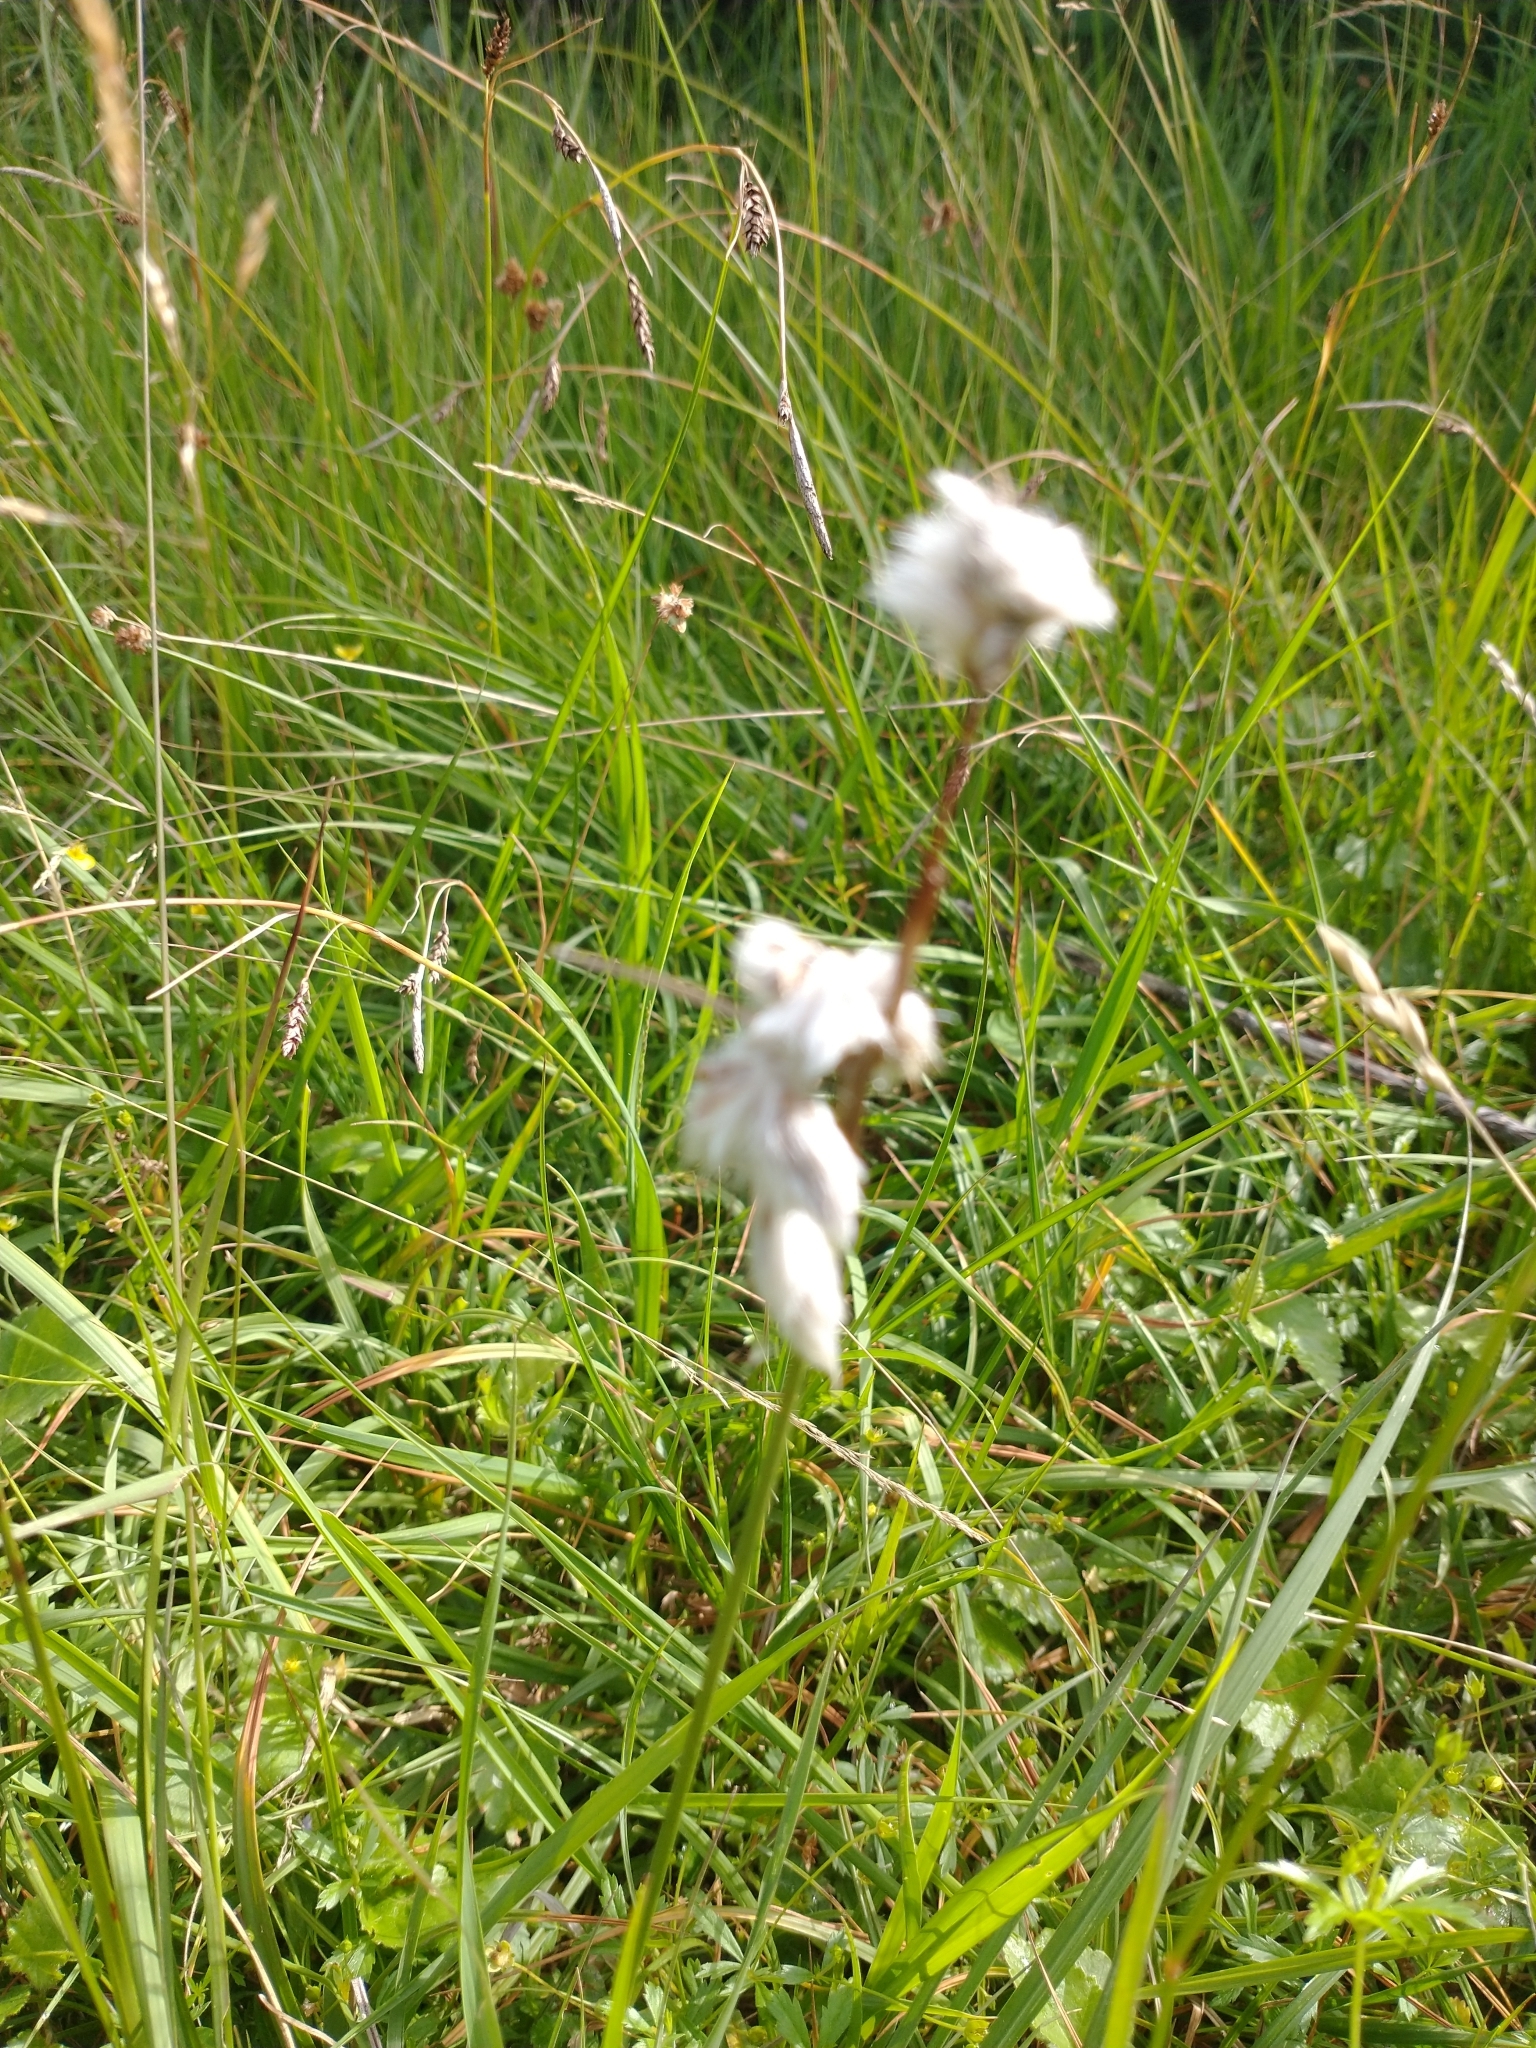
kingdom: Plantae
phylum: Tracheophyta
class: Liliopsida
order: Poales
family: Cyperaceae
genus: Eriophorum
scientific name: Eriophorum angustifolium
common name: Common cottongrass
